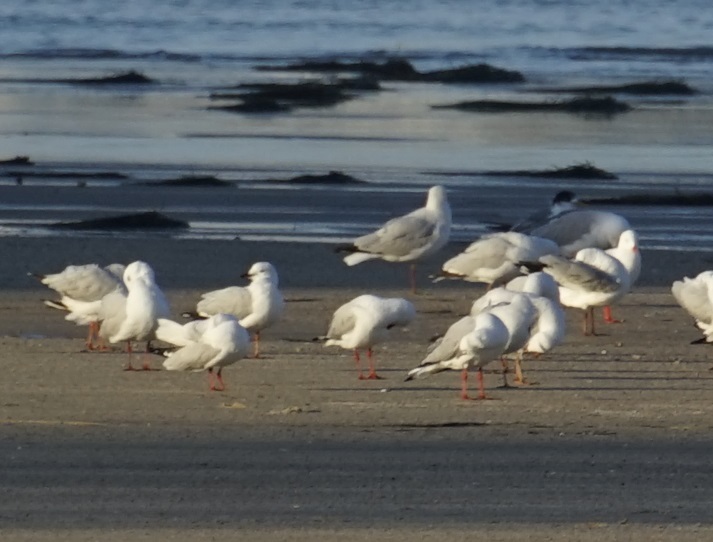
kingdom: Animalia
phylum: Chordata
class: Aves
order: Charadriiformes
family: Laridae
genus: Chroicocephalus
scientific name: Chroicocephalus novaehollandiae
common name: Silver gull
